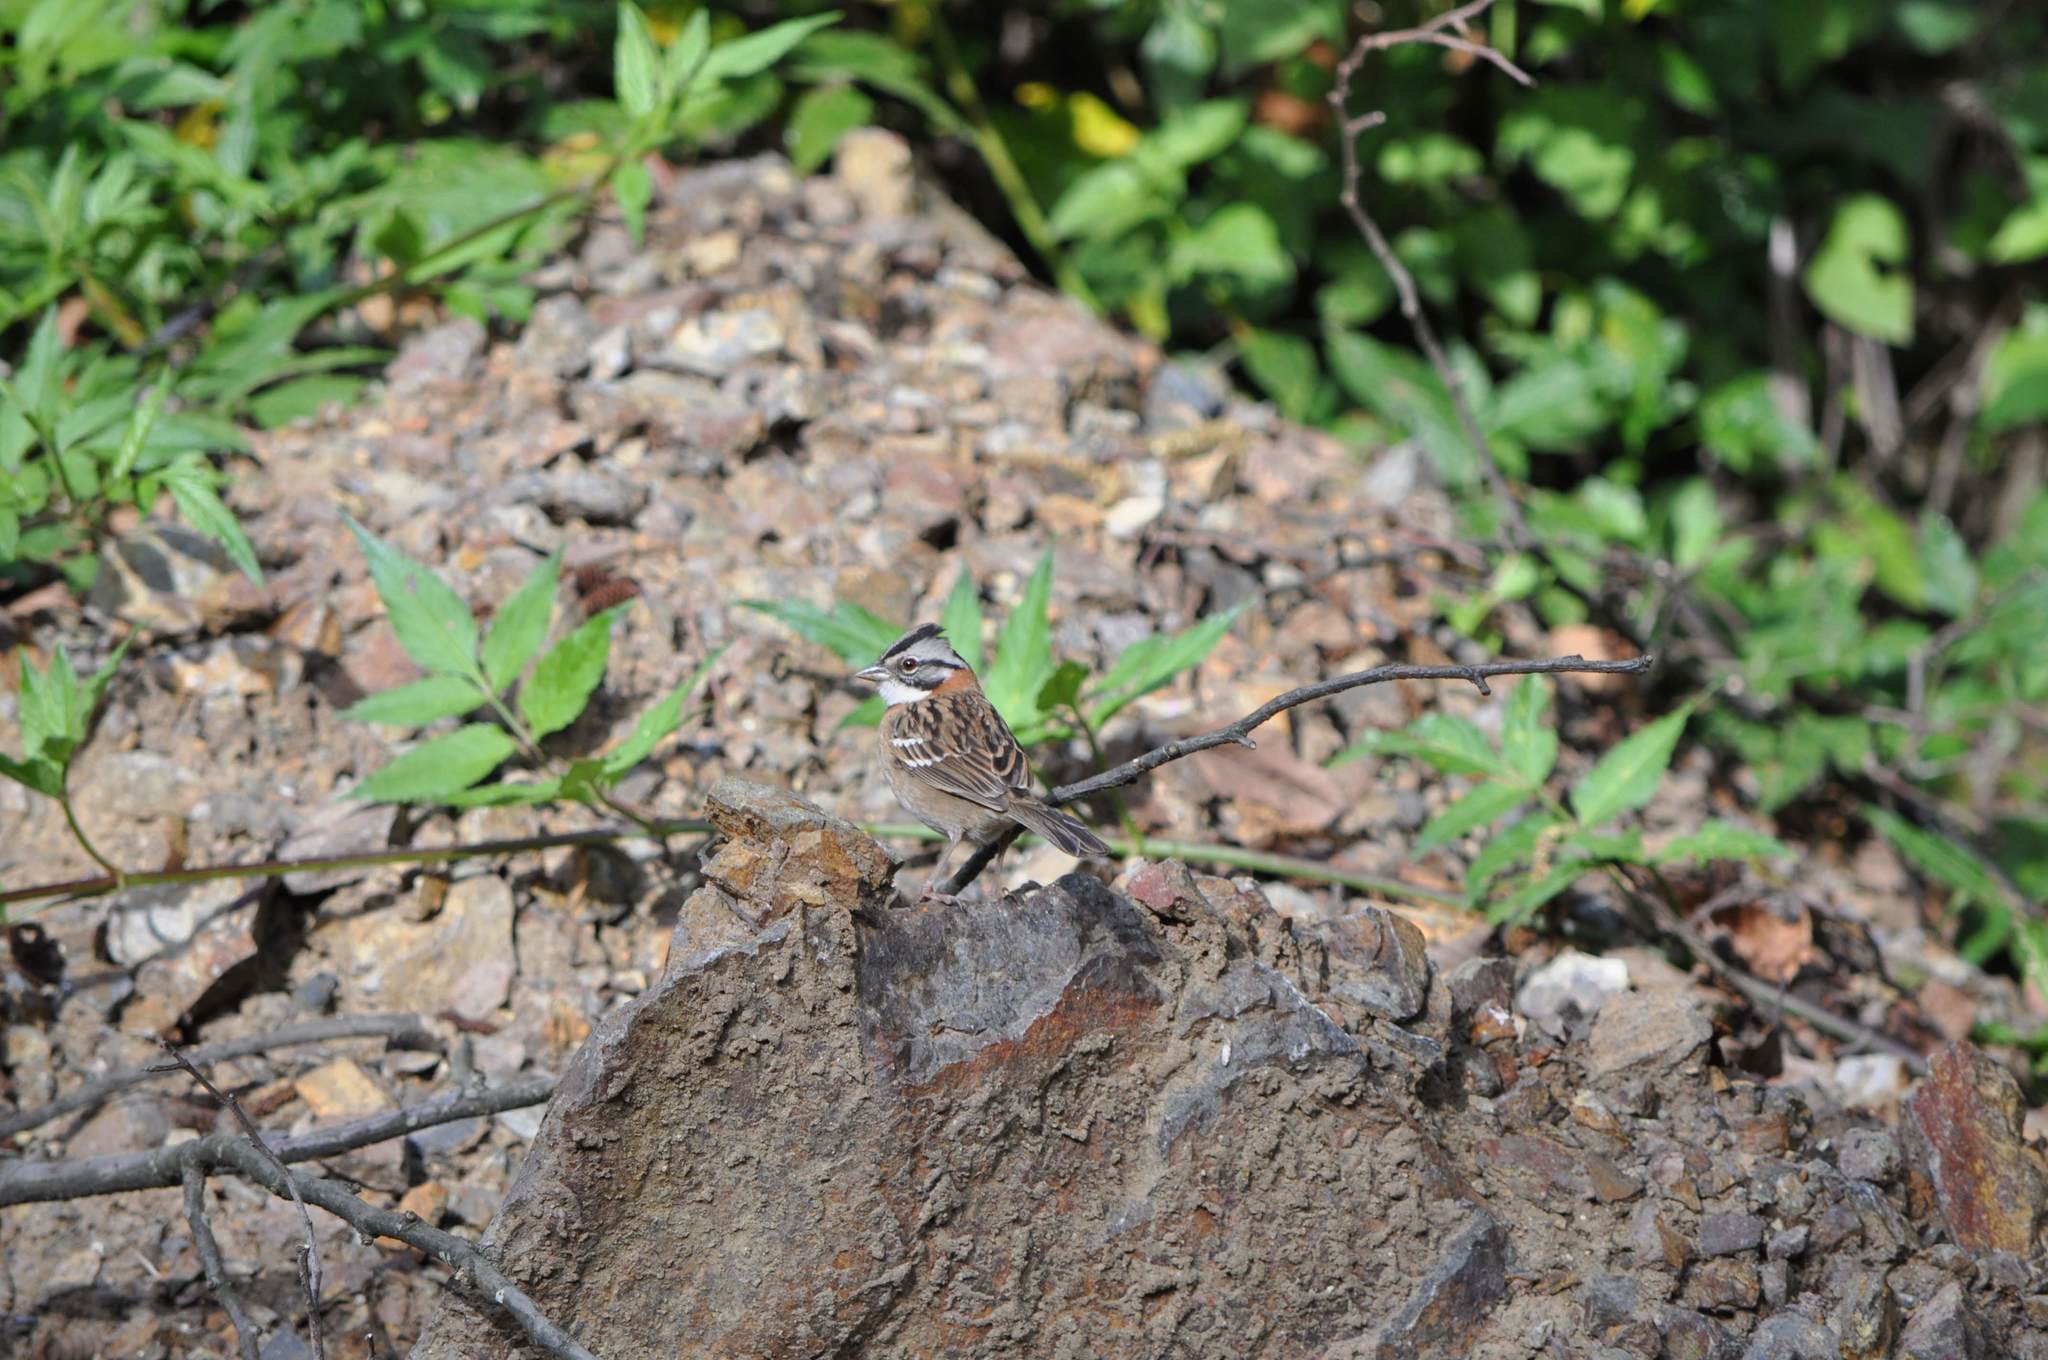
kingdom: Animalia
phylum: Chordata
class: Aves
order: Passeriformes
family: Passerellidae
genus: Zonotrichia
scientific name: Zonotrichia capensis
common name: Rufous-collared sparrow
